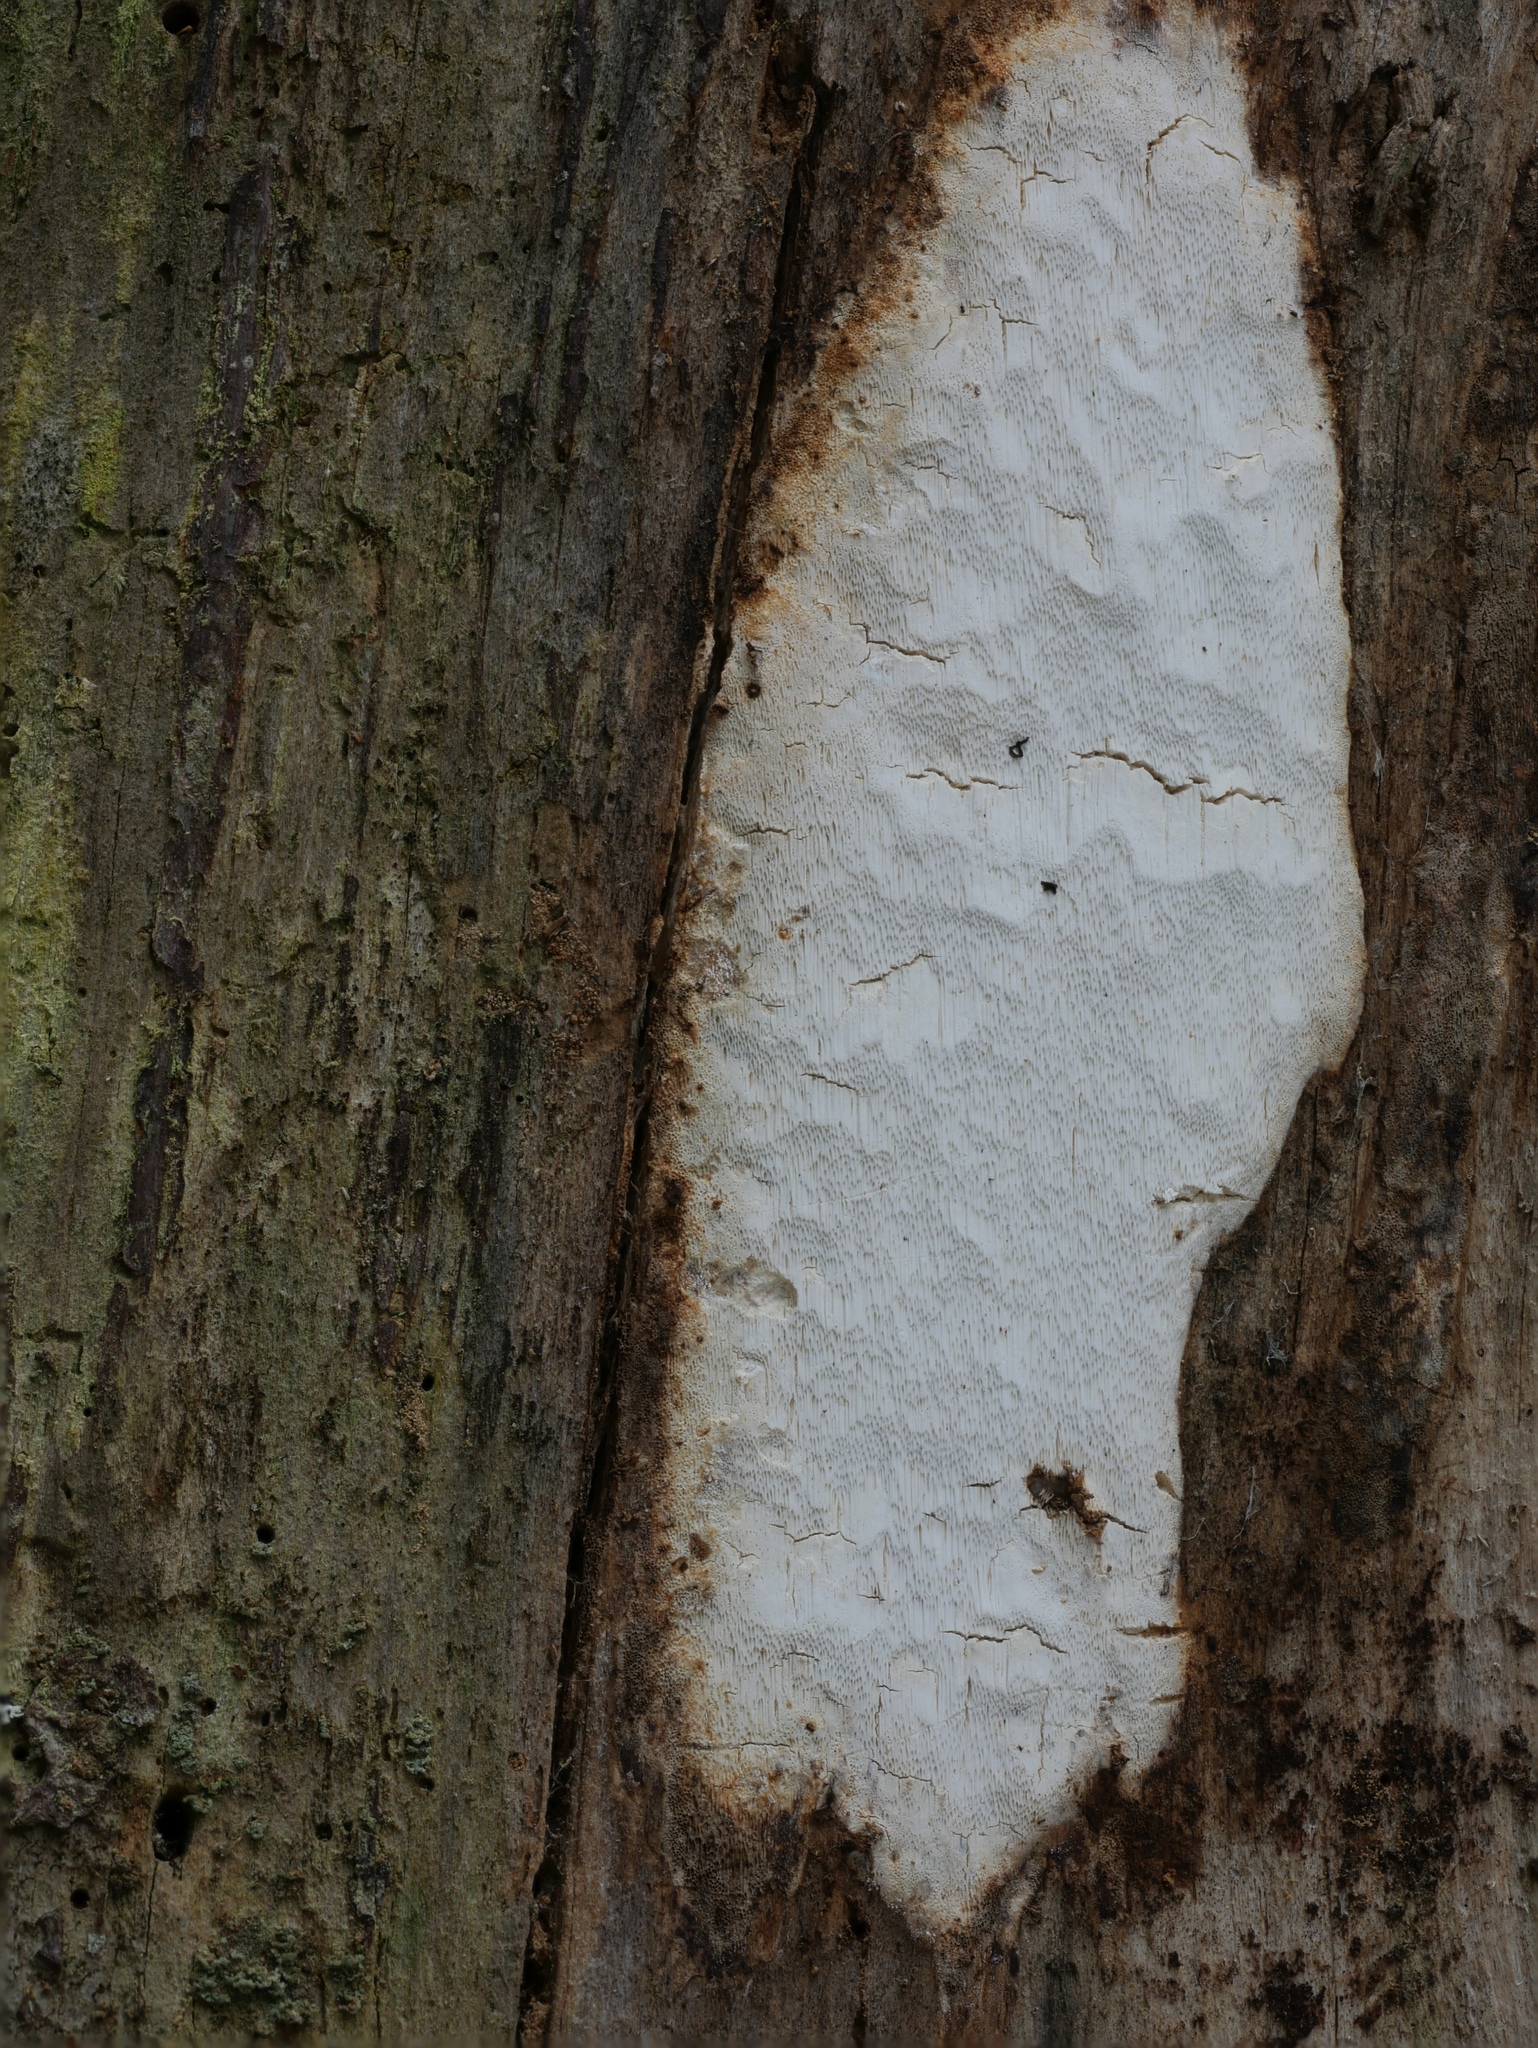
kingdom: Fungi
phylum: Basidiomycota
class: Agaricomycetes
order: Polyporales
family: Fomitopsidaceae
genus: Fomitopsis
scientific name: Fomitopsis
